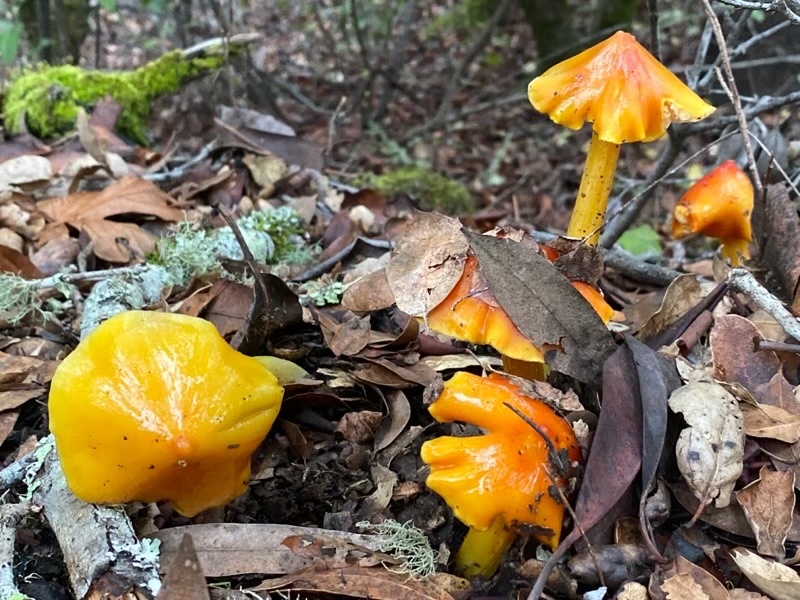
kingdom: Fungi
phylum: Basidiomycota
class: Agaricomycetes
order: Agaricales
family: Hygrophoraceae
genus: Hygrocybe
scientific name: Hygrocybe acutoconica
